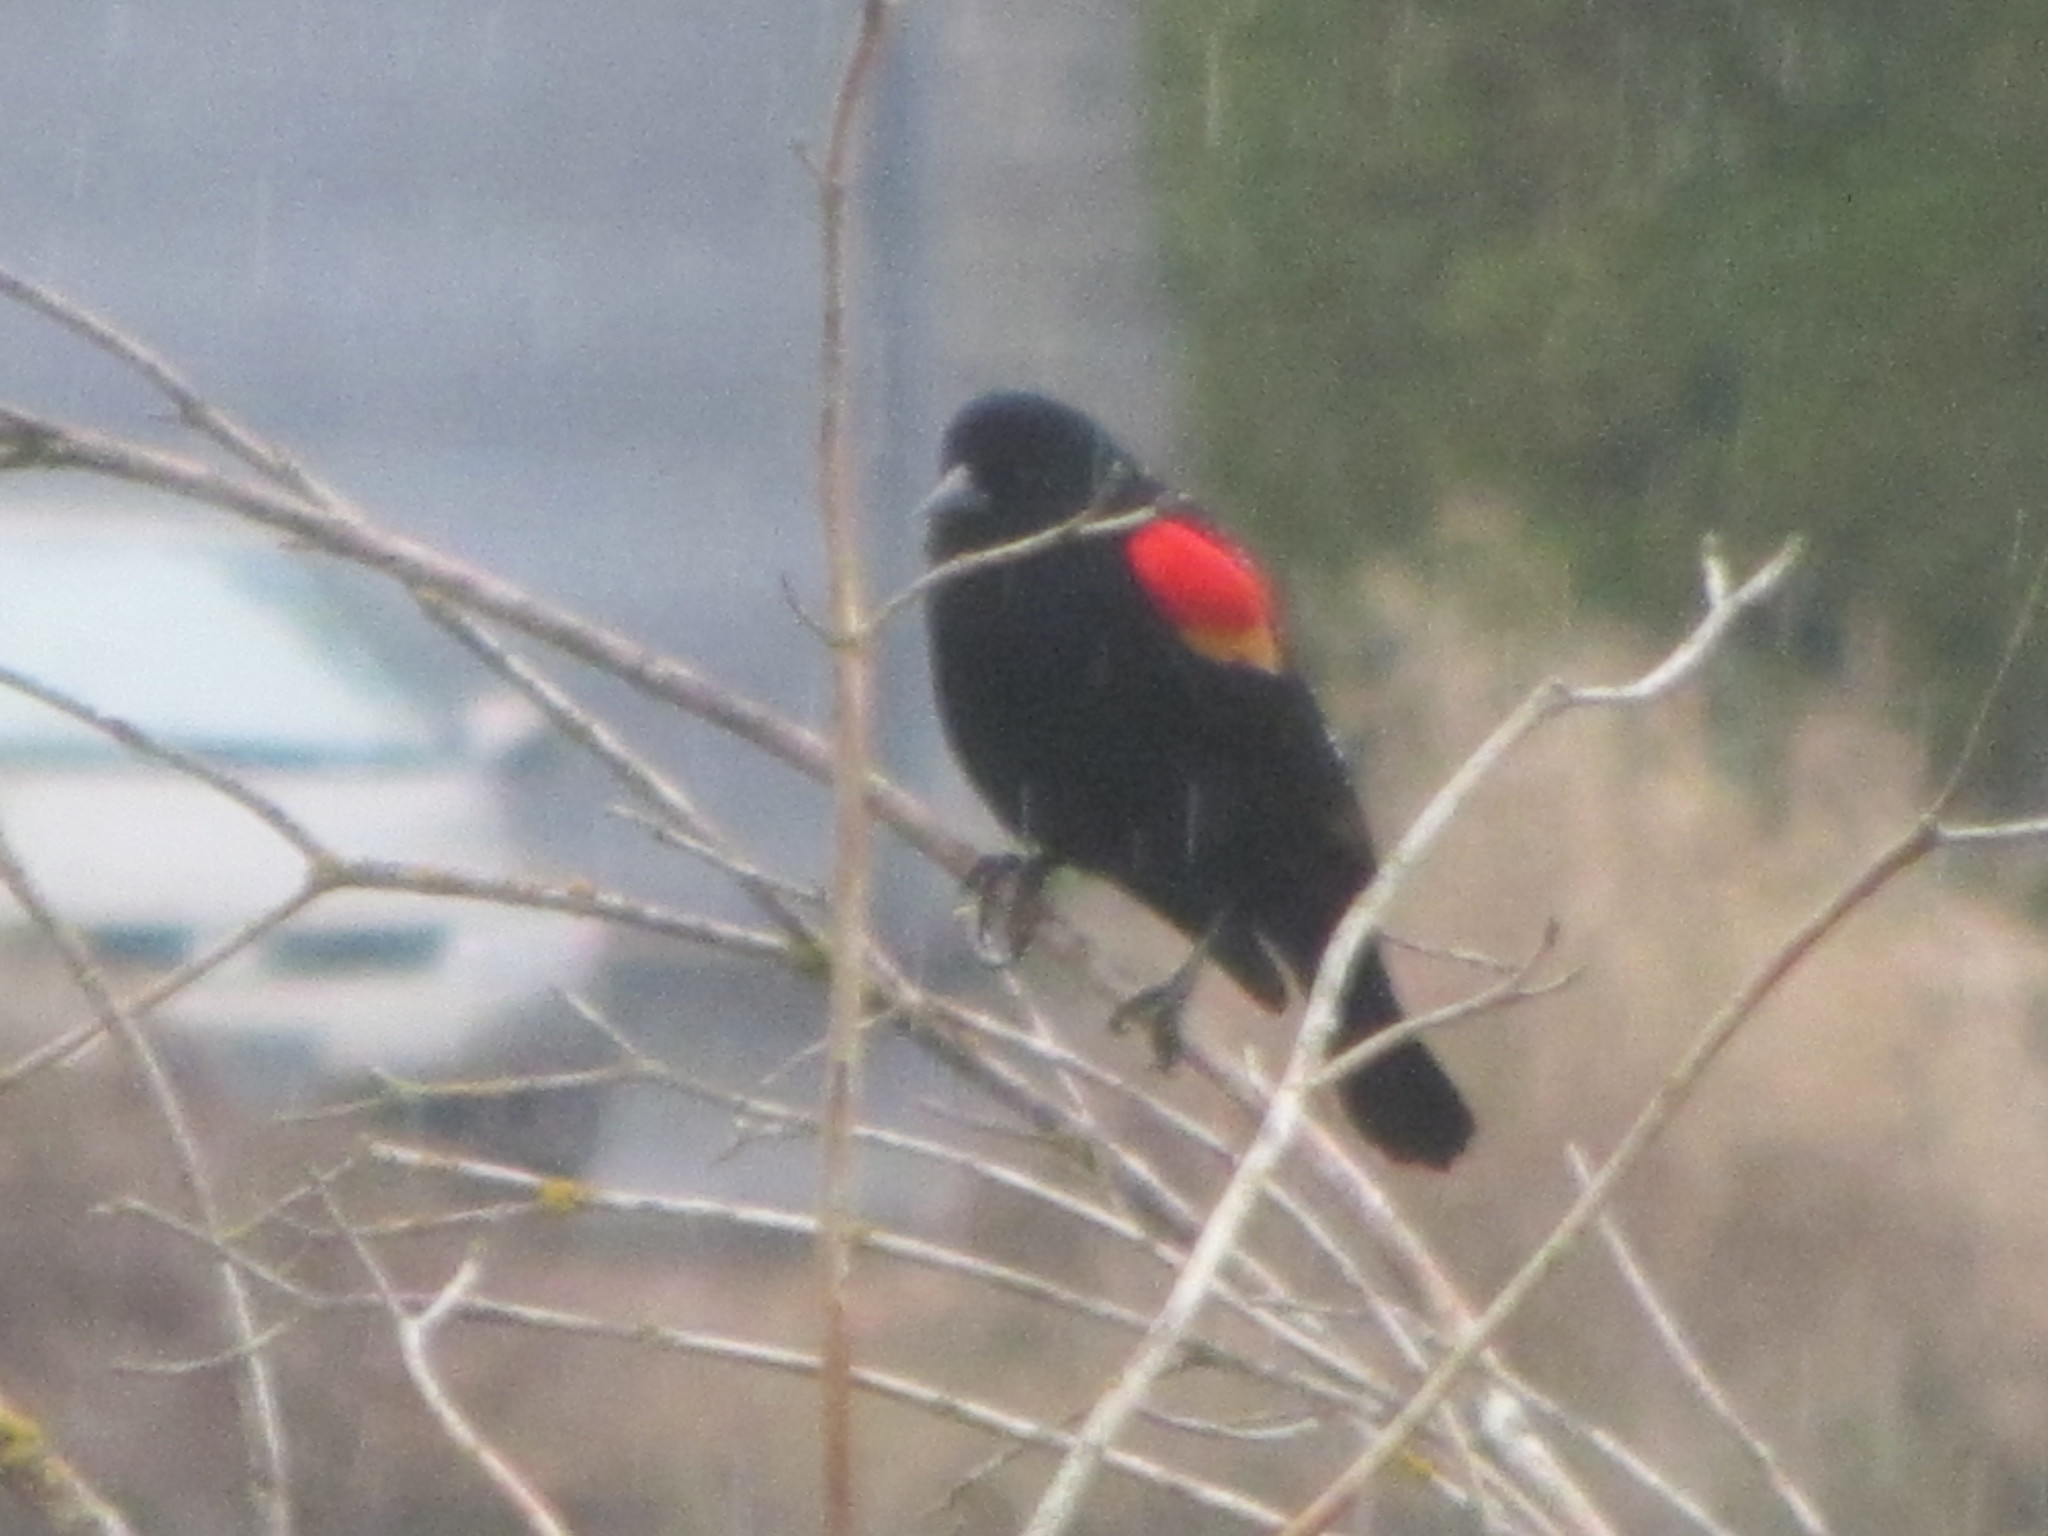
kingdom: Animalia
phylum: Chordata
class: Aves
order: Passeriformes
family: Icteridae
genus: Agelaius
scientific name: Agelaius phoeniceus
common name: Red-winged blackbird
